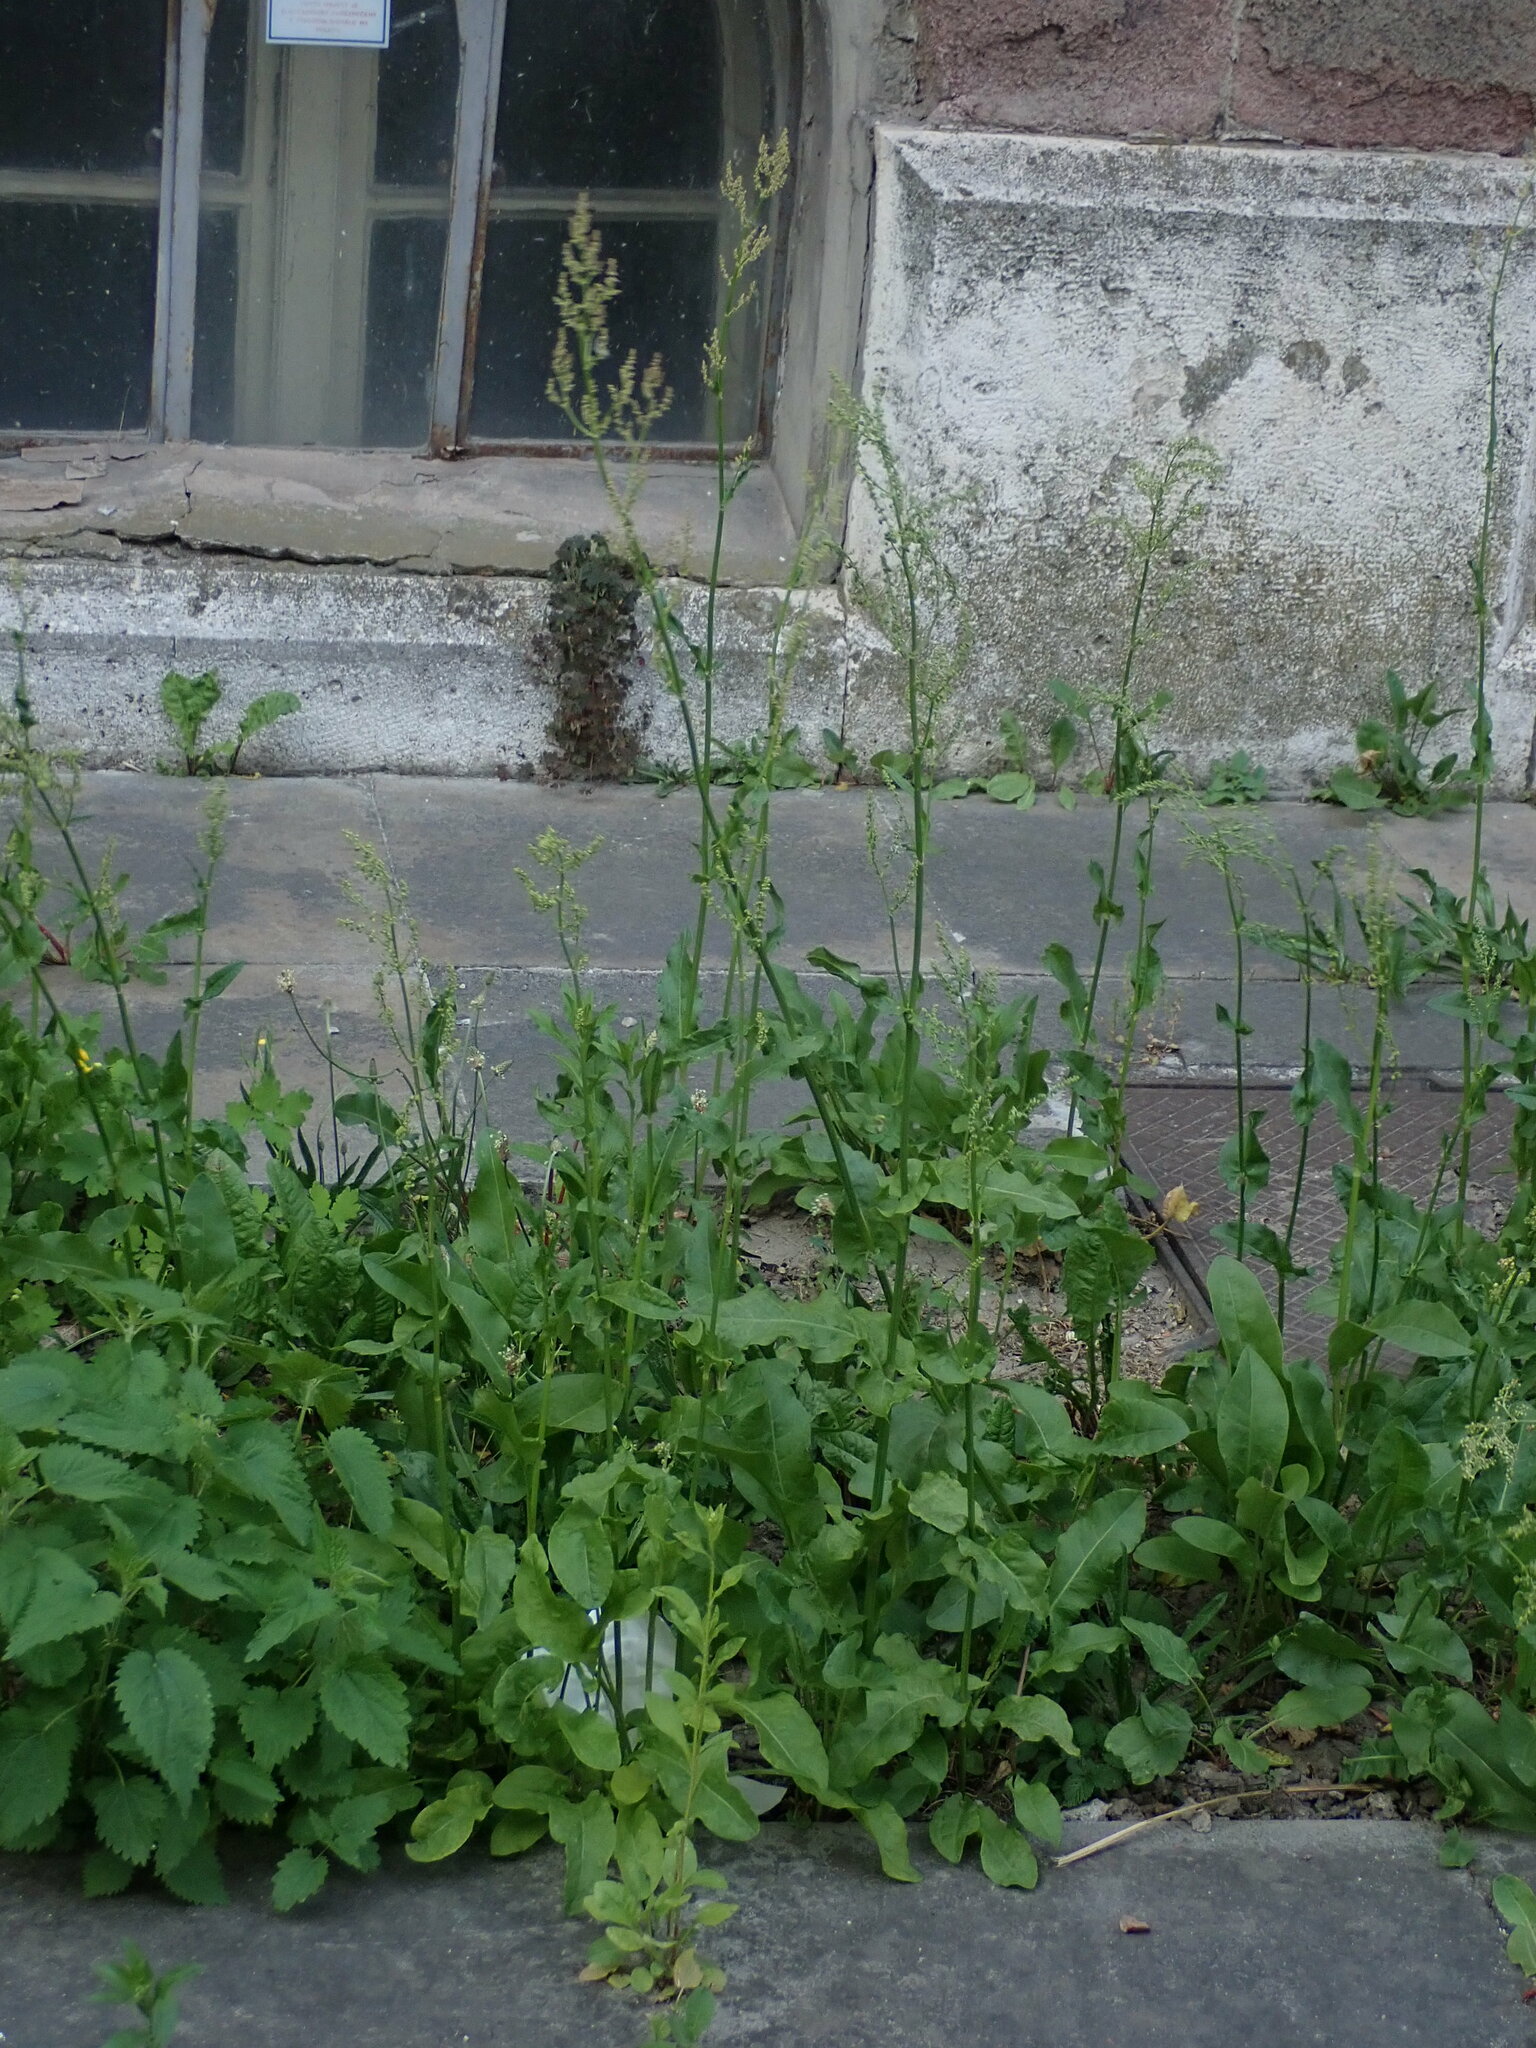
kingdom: Plantae
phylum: Tracheophyta
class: Magnoliopsida
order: Caryophyllales
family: Polygonaceae
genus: Rumex
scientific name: Rumex acetosa
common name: Garden sorrel
